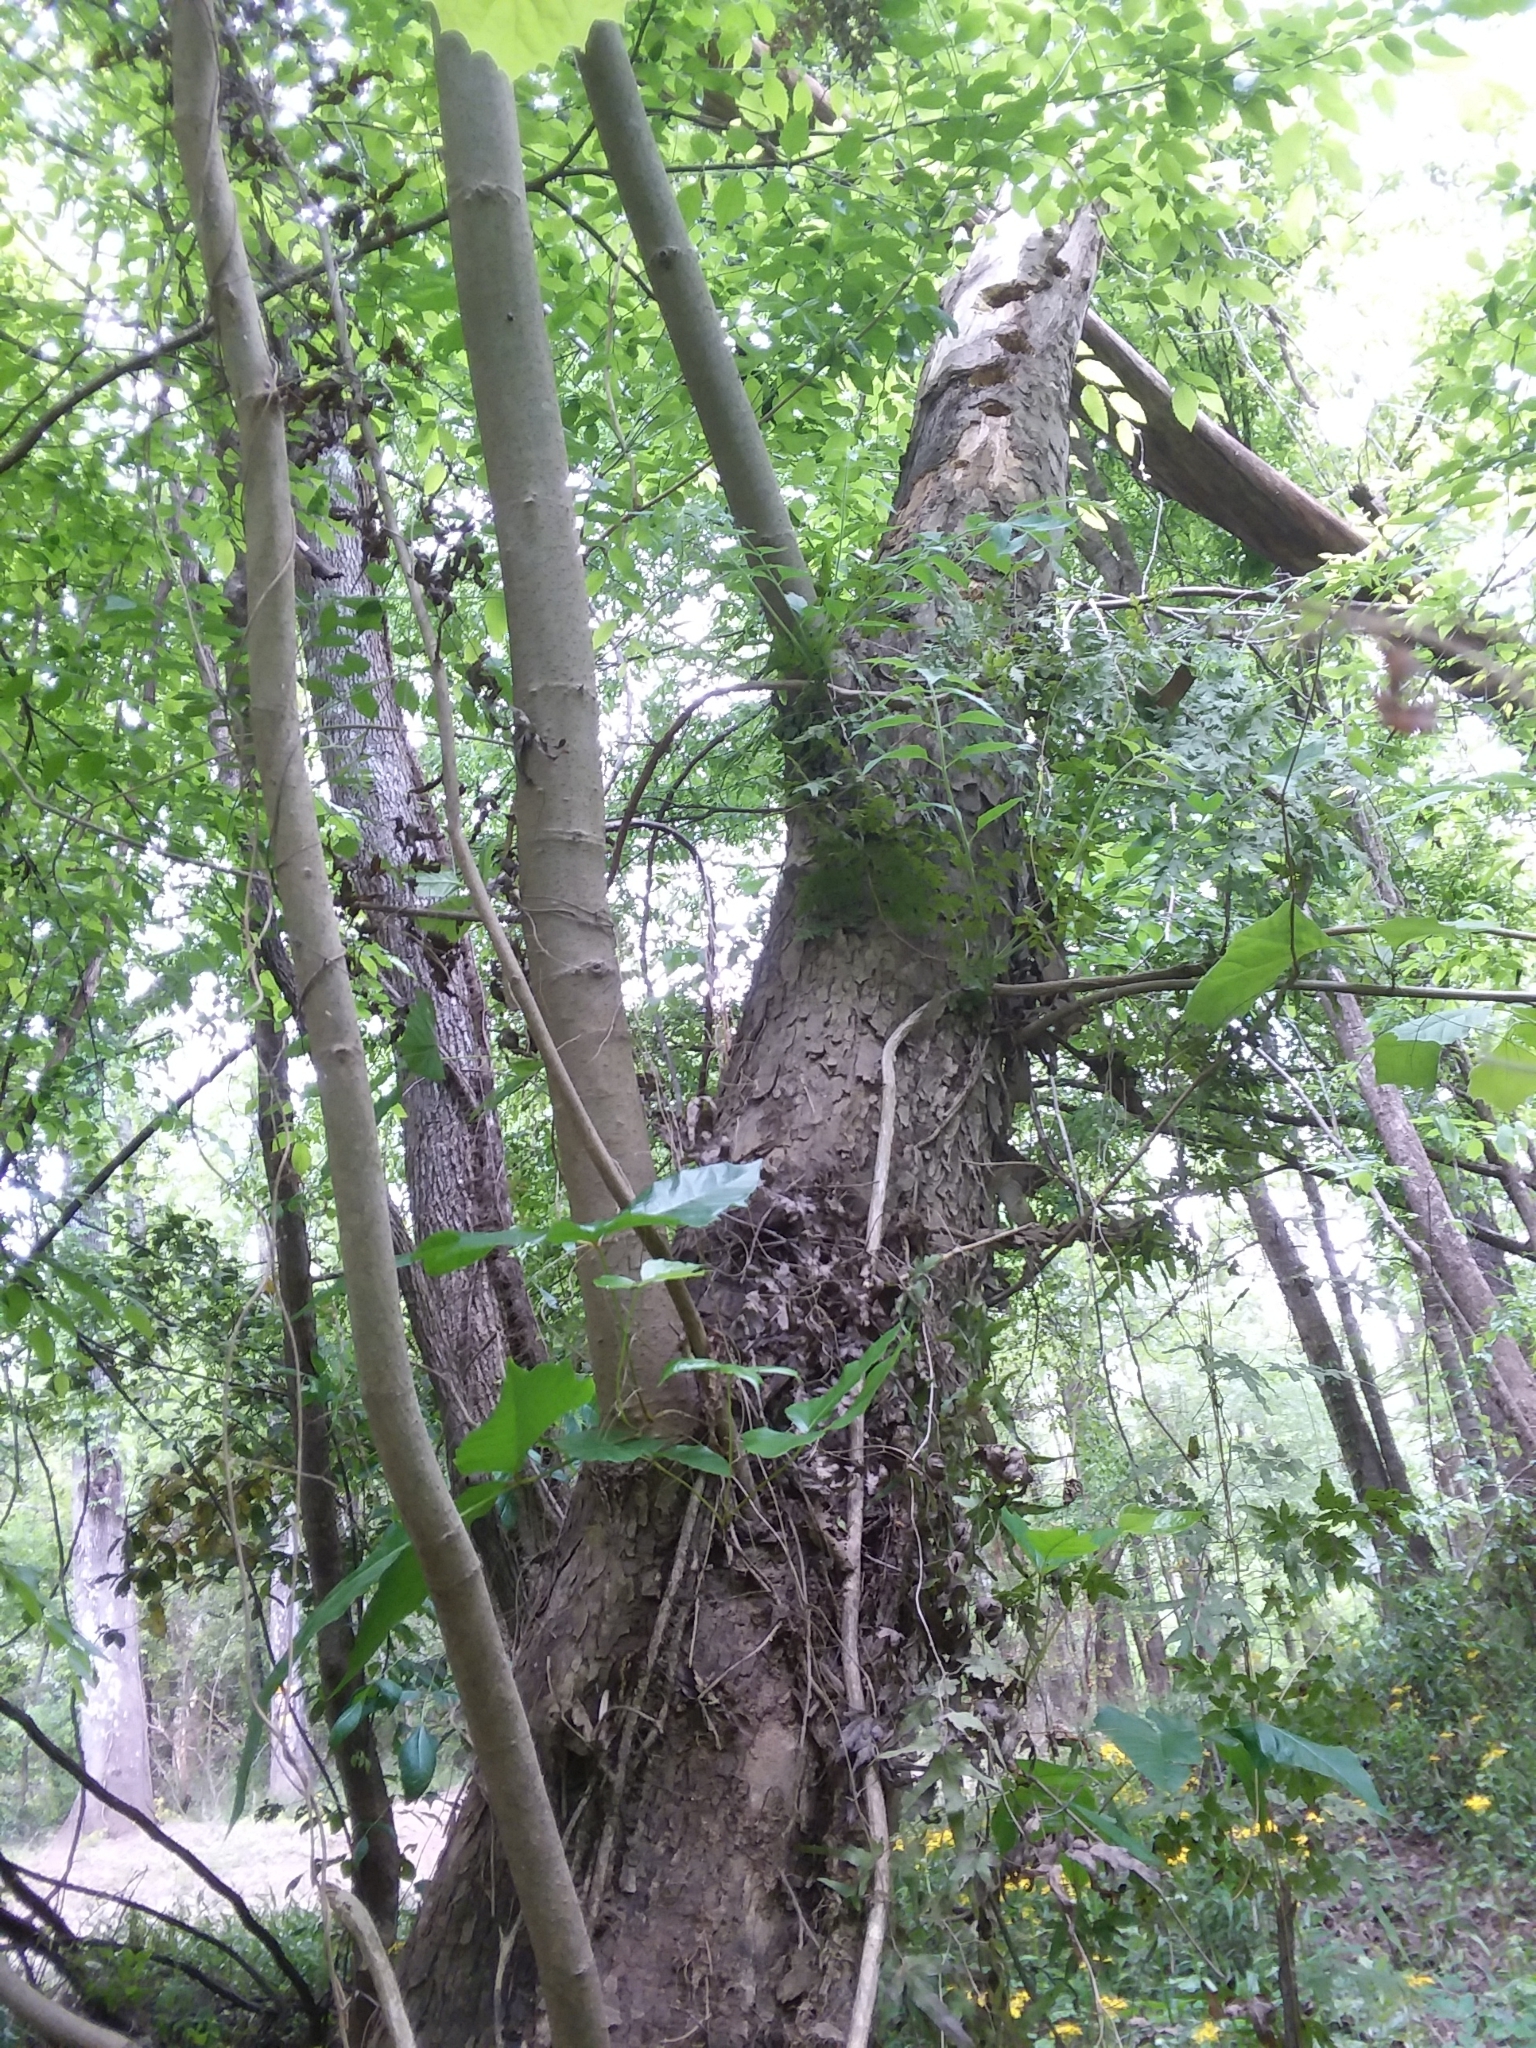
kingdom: Plantae
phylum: Tracheophyta
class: Magnoliopsida
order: Proteales
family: Platanaceae
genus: Platanus
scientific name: Platanus occidentalis
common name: American sycamore
